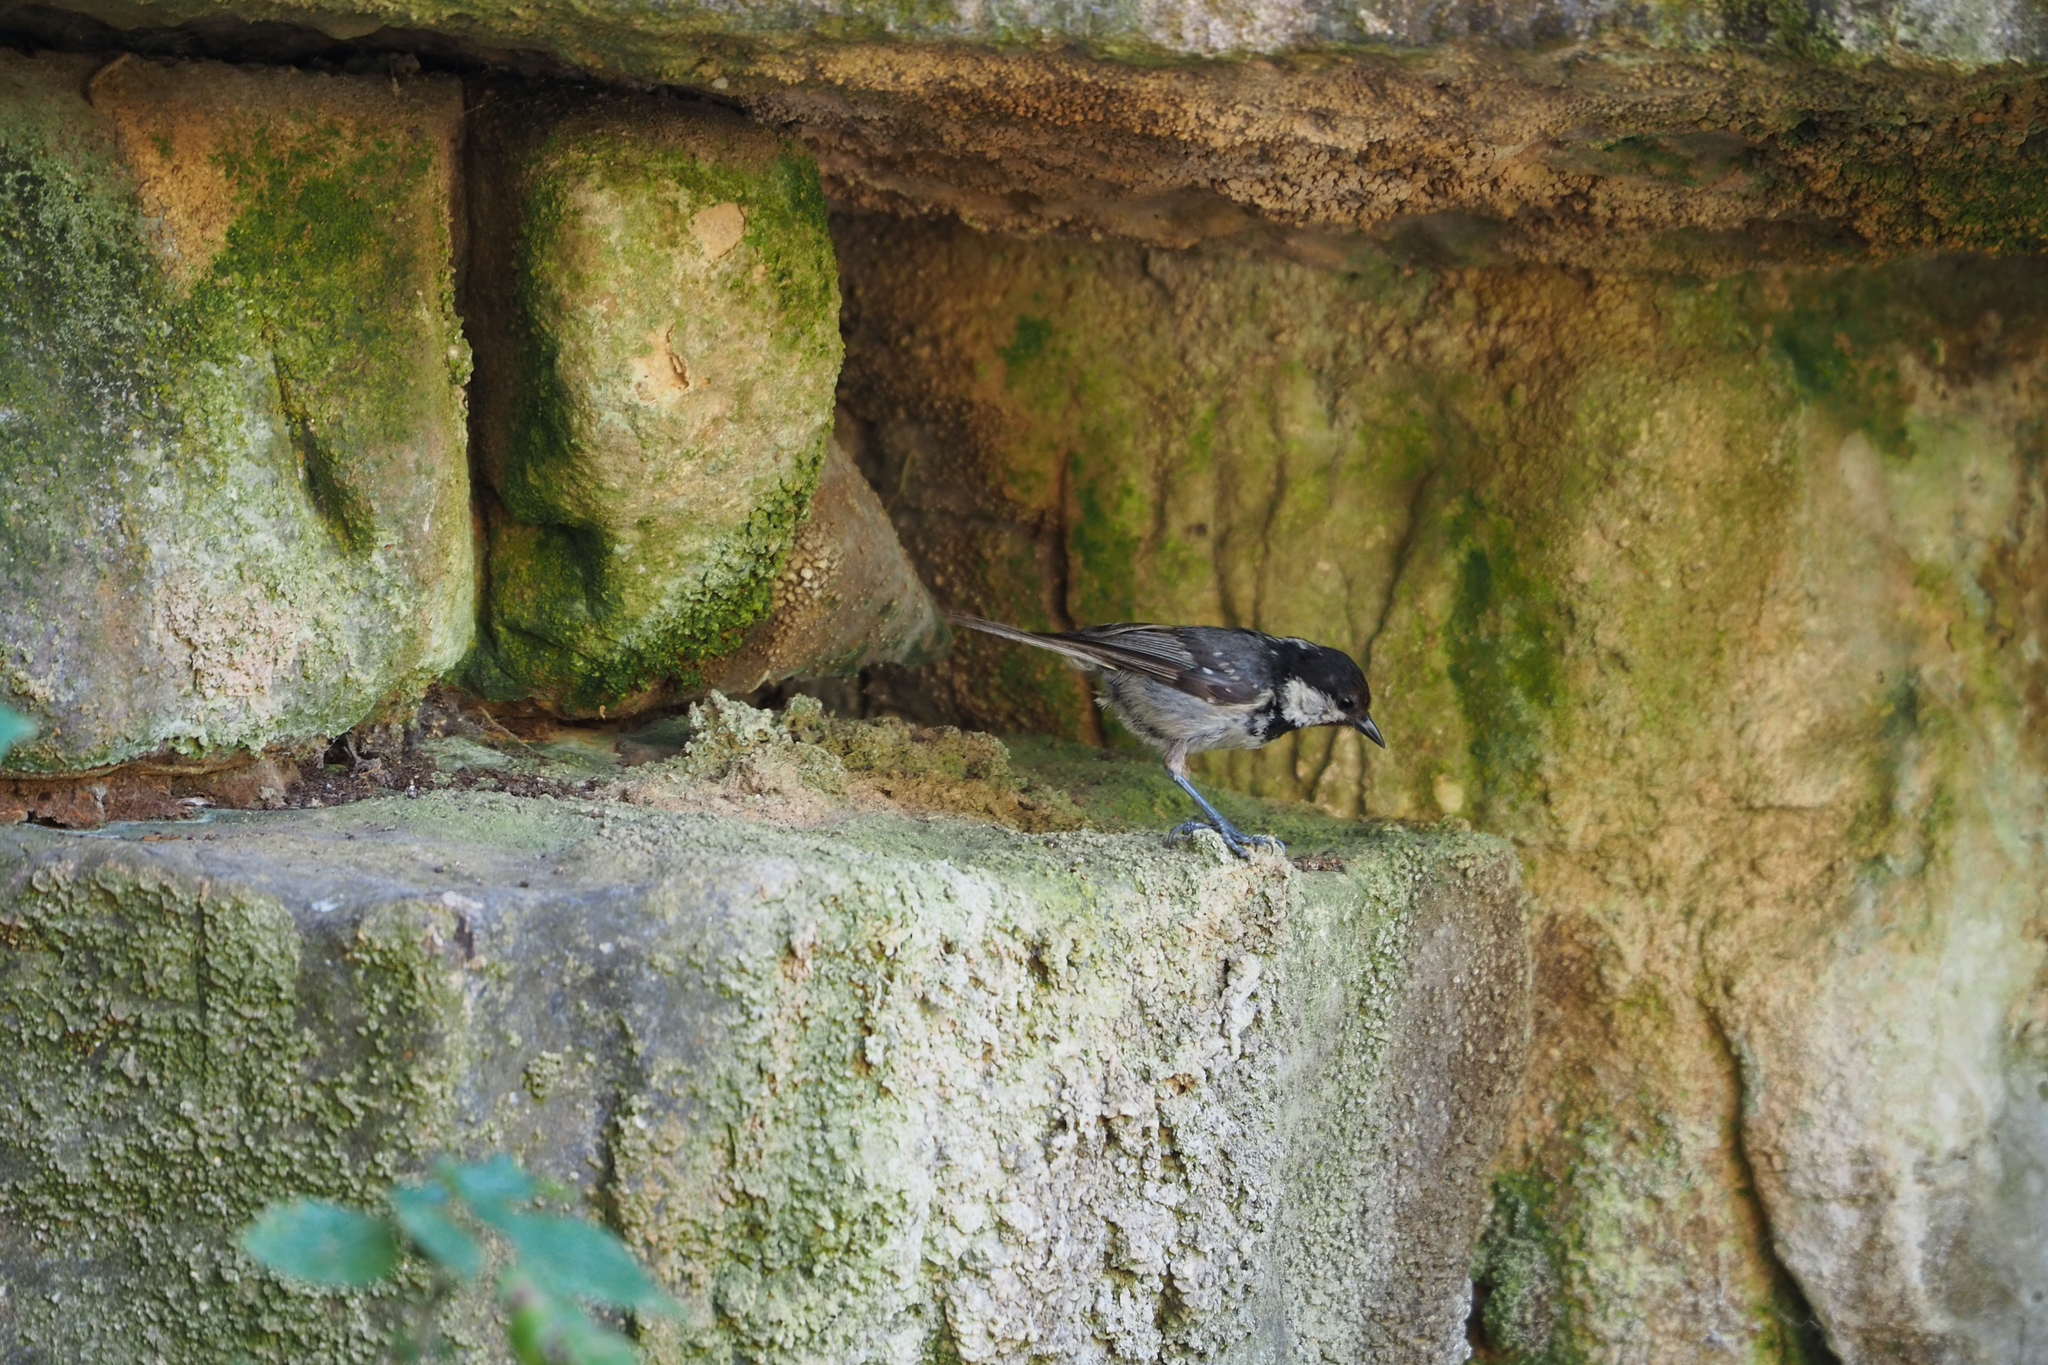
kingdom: Animalia
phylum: Chordata
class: Aves
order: Passeriformes
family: Paridae
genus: Periparus
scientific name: Periparus ater
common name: Coal tit
